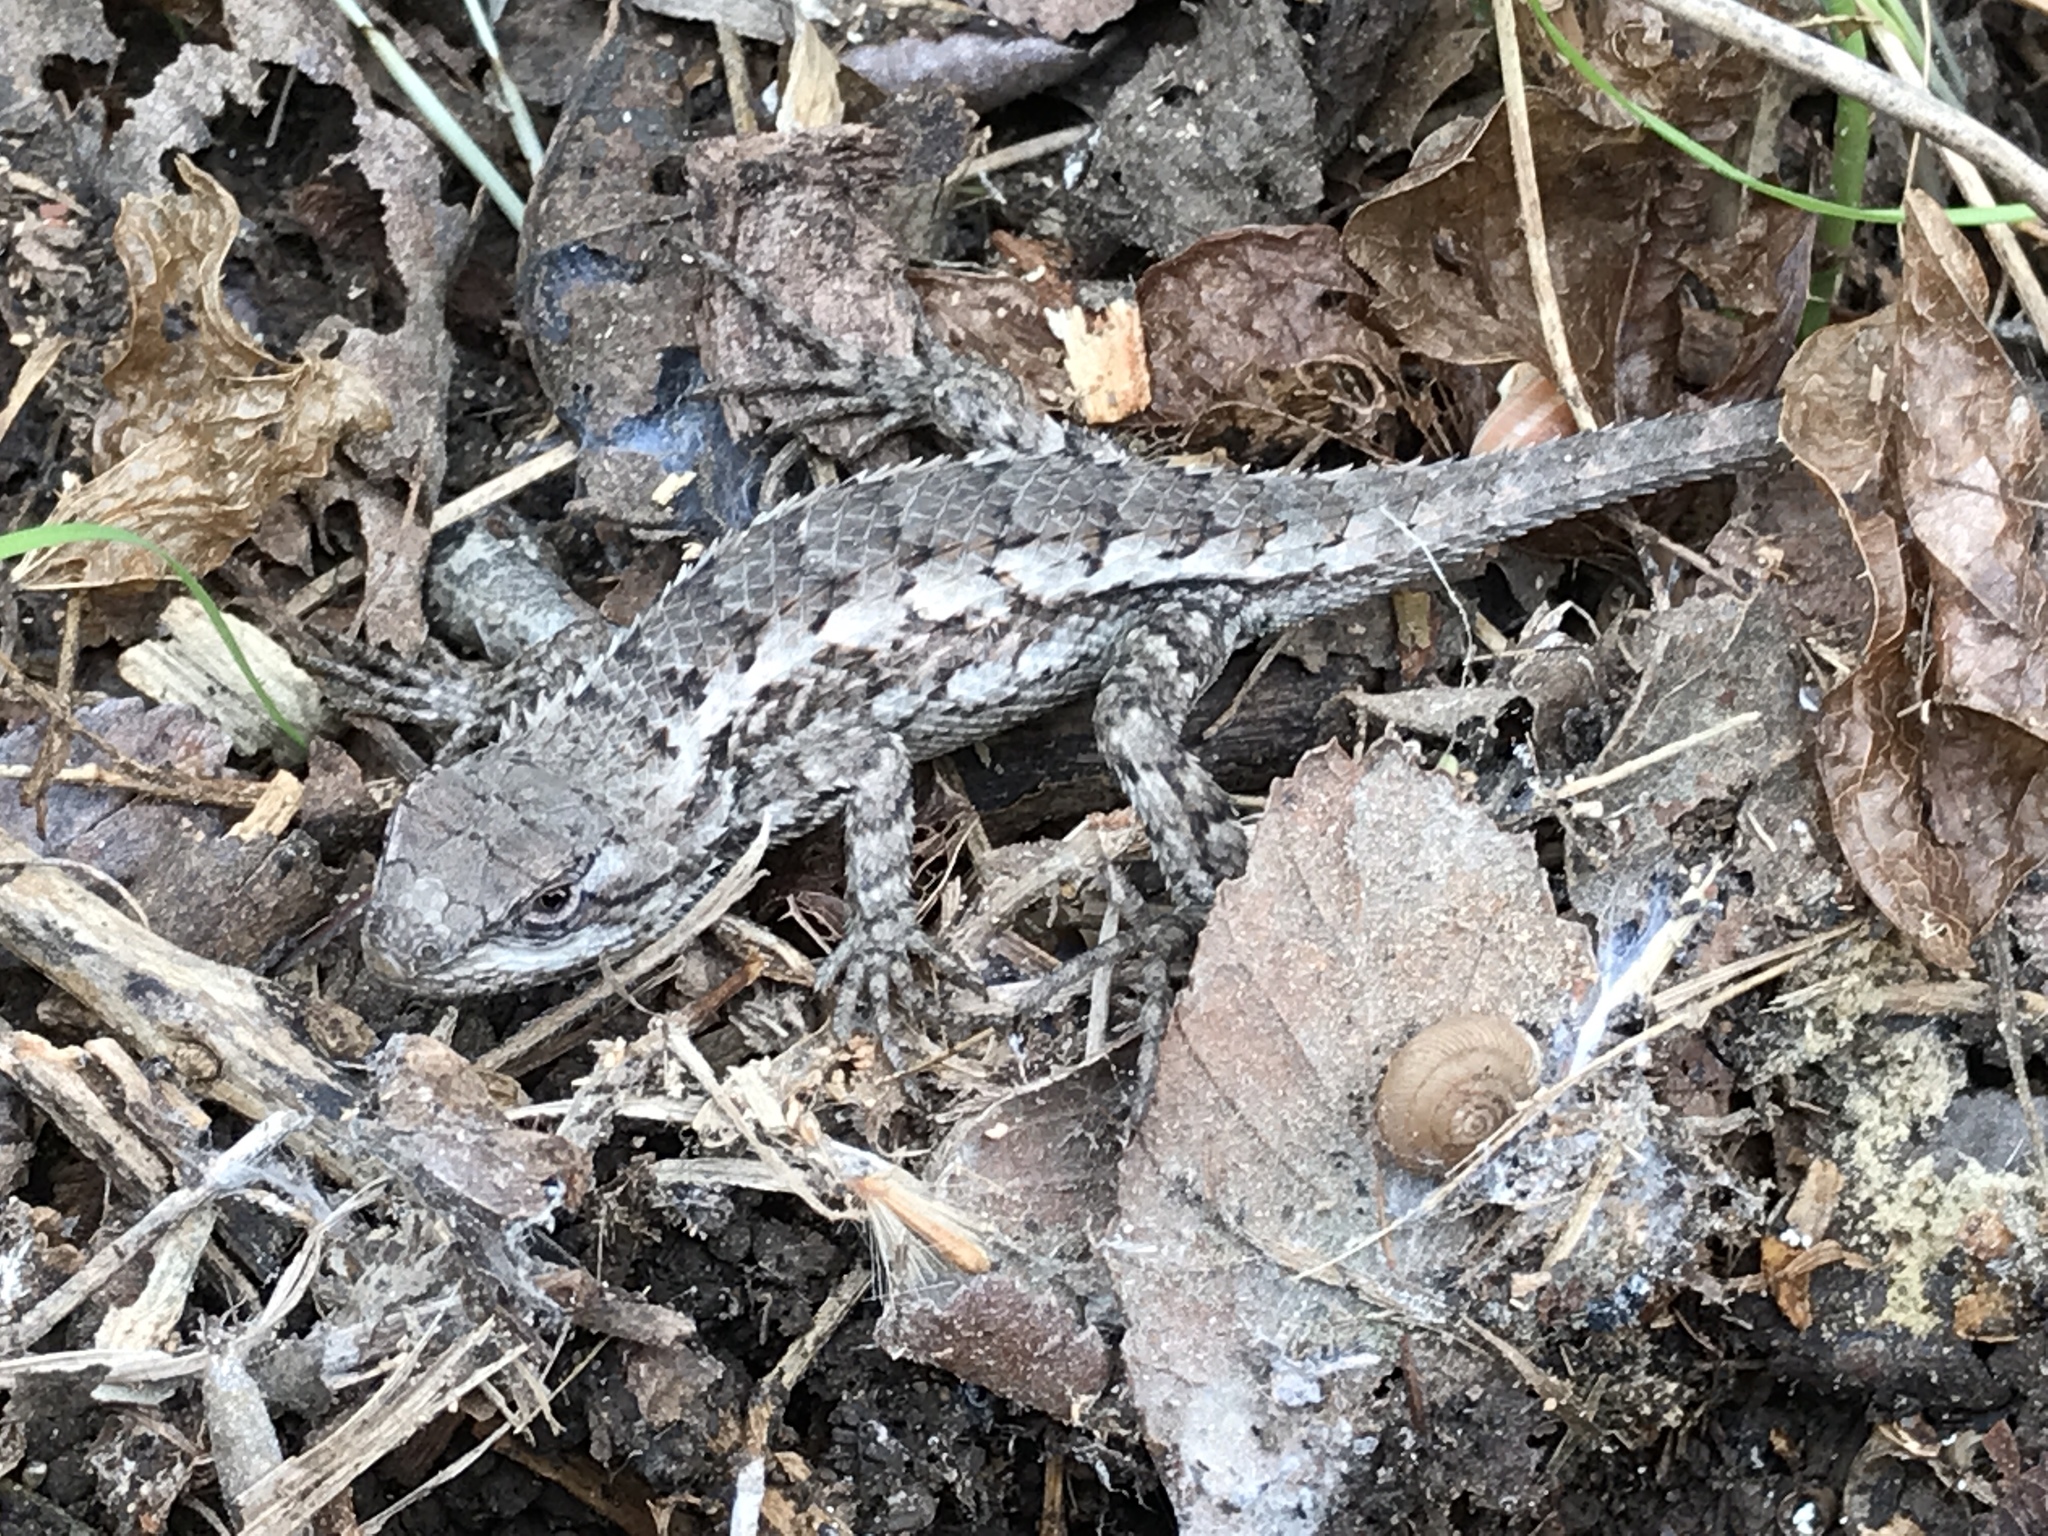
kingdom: Animalia
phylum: Chordata
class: Squamata
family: Phrynosomatidae
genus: Sceloporus
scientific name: Sceloporus olivaceus
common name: Texas spiny lizard
